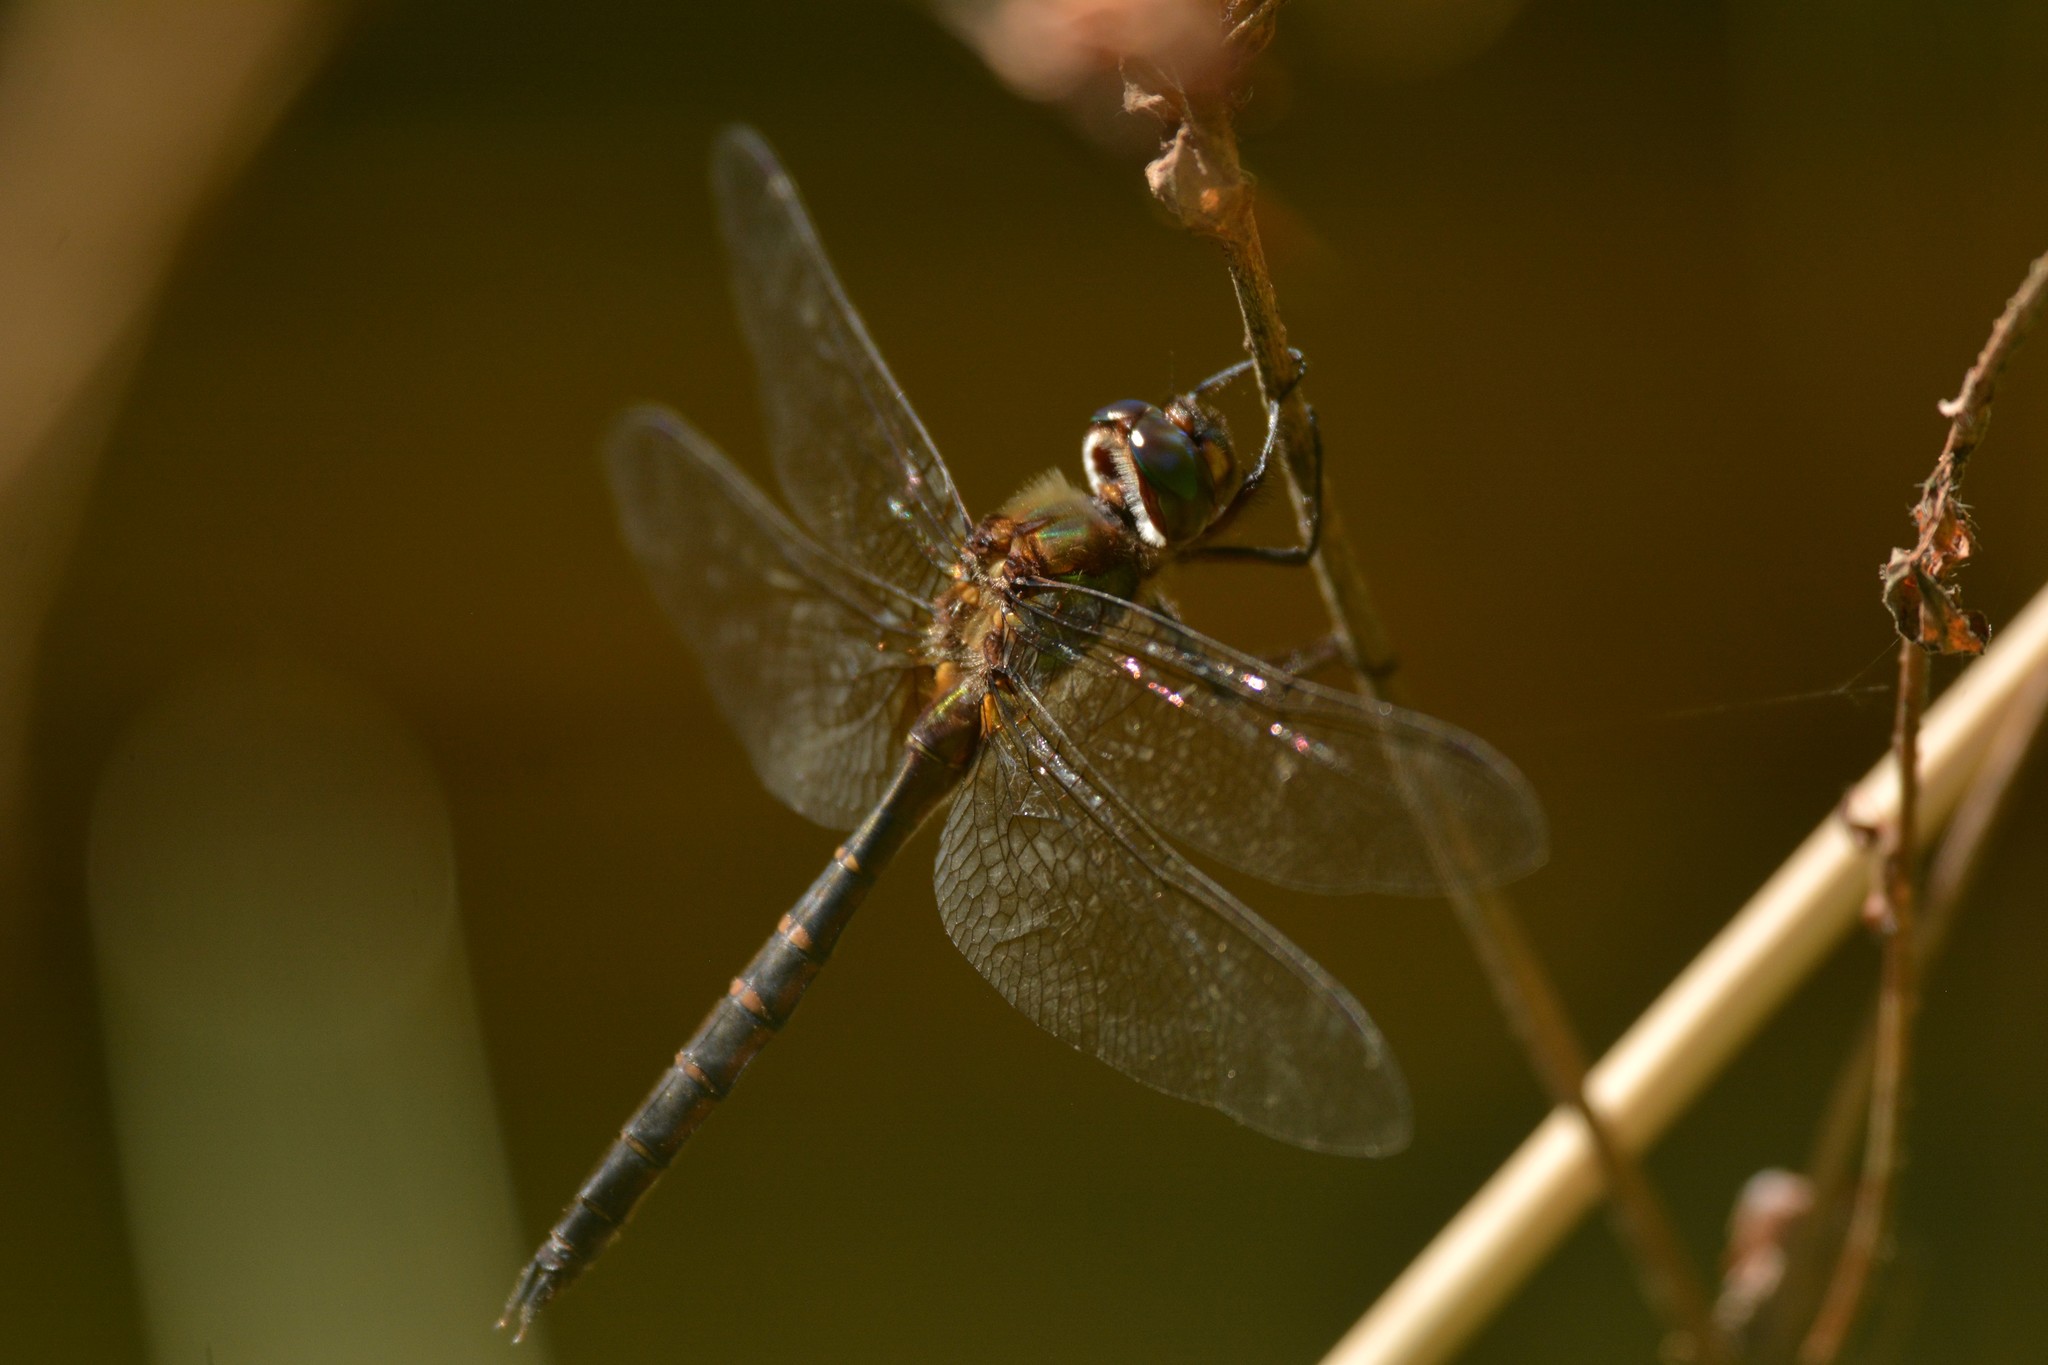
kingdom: Animalia
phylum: Arthropoda
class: Insecta
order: Odonata
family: Corduliidae
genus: Procordulia
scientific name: Procordulia smithii
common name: Ranger dragonfly
